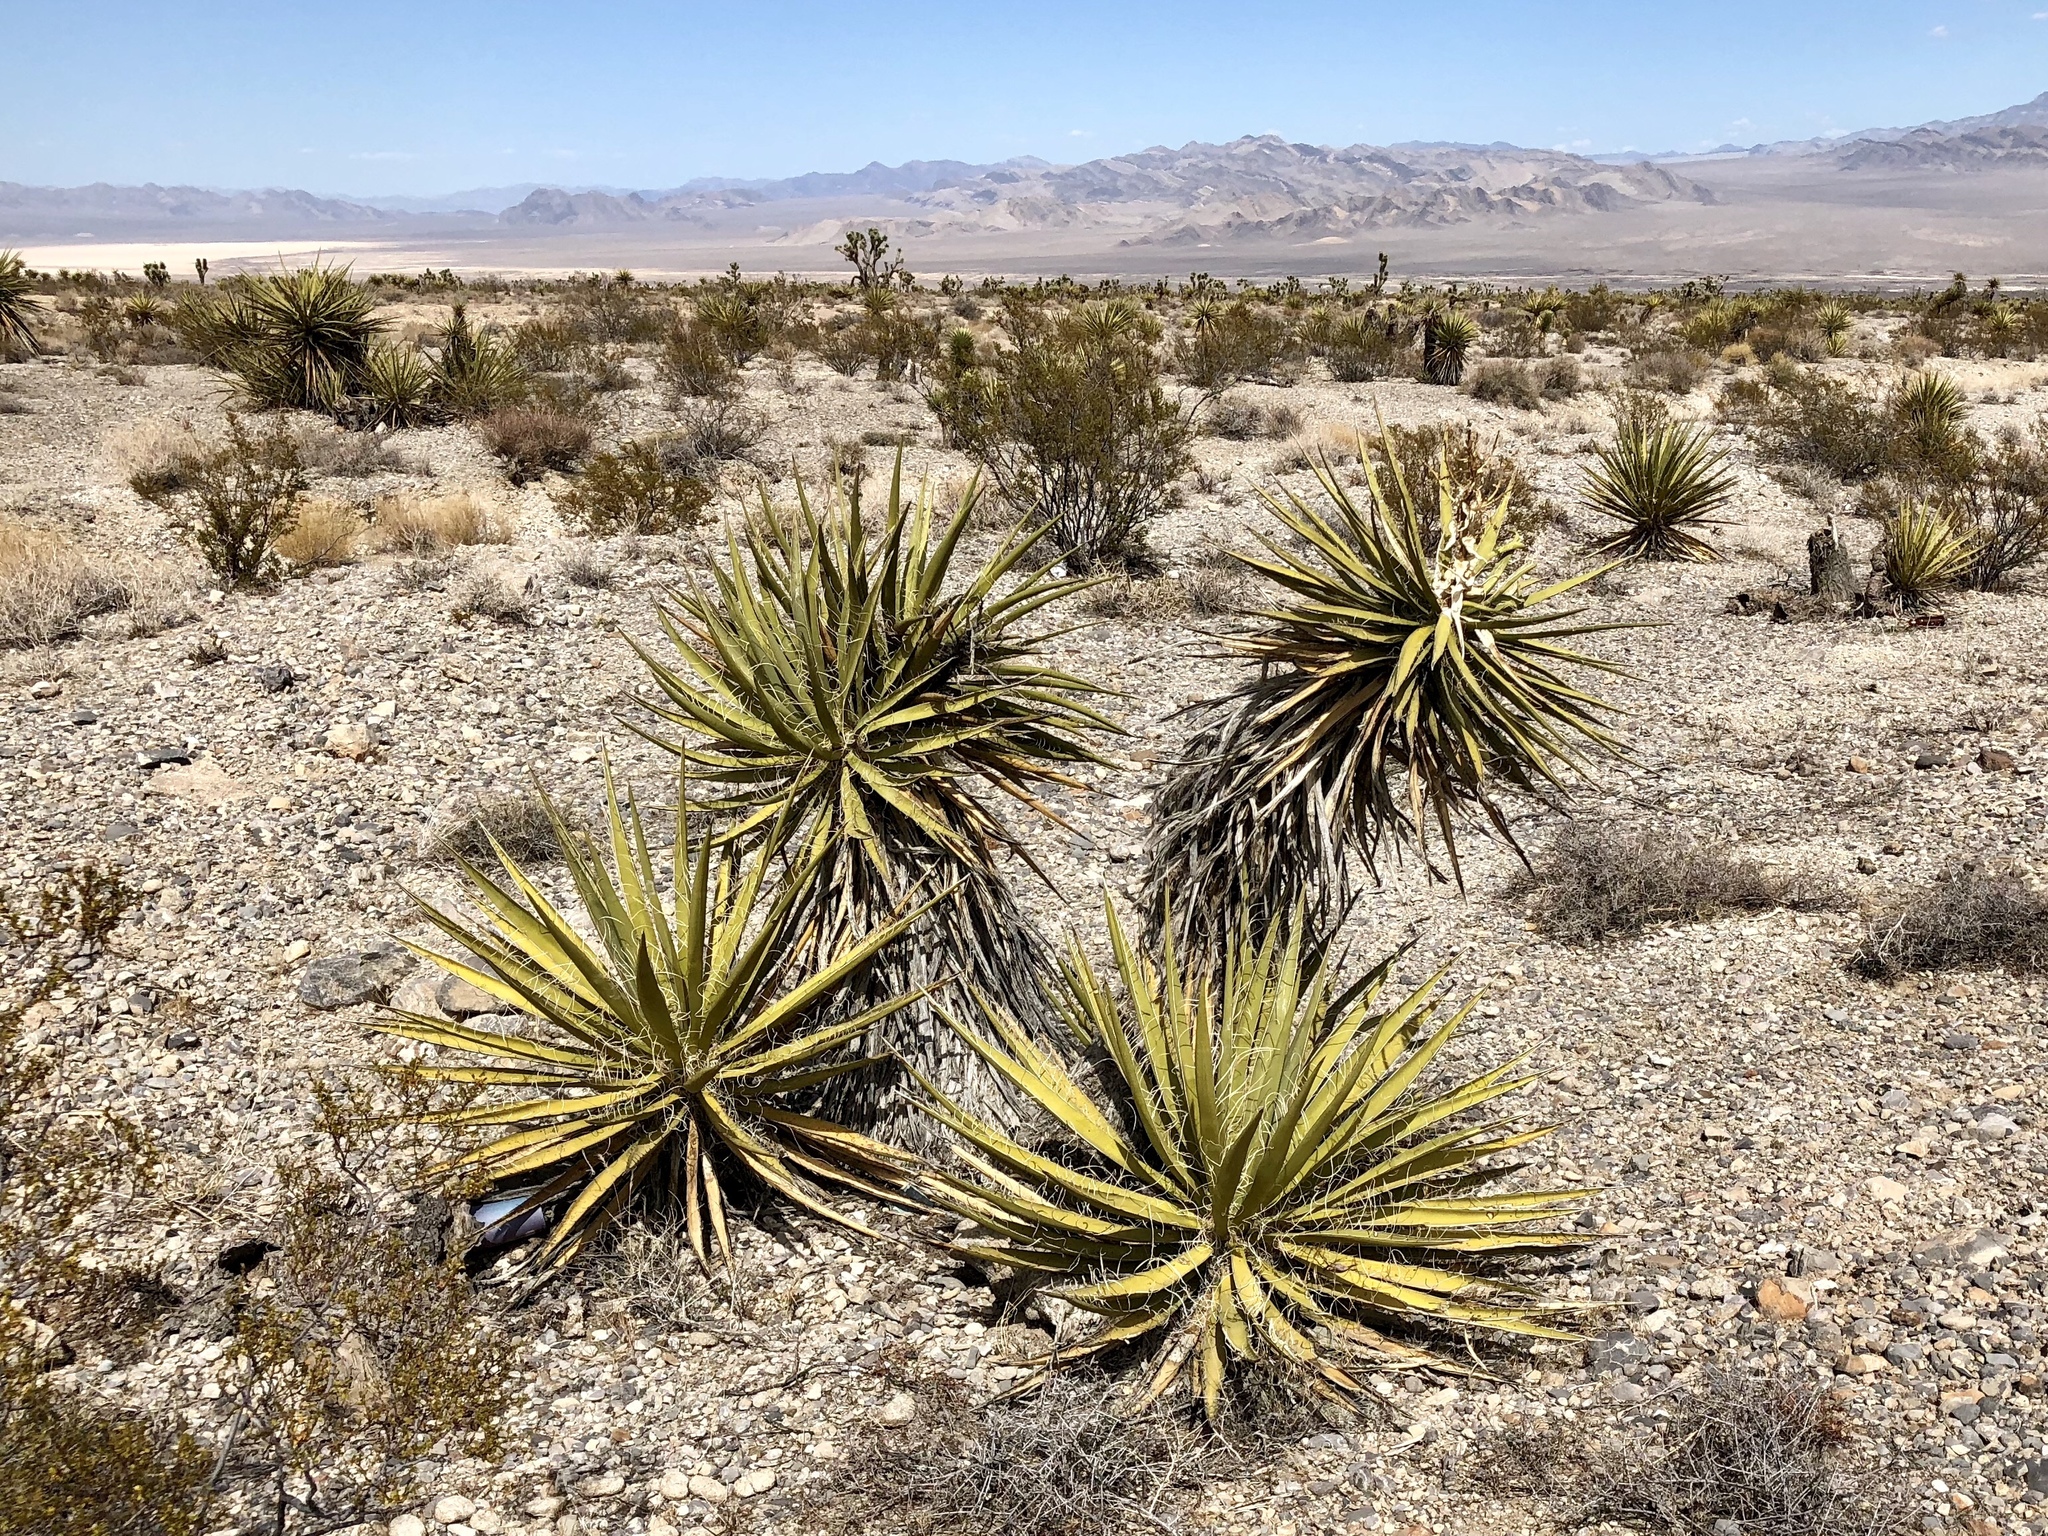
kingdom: Plantae
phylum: Tracheophyta
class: Liliopsida
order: Asparagales
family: Asparagaceae
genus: Yucca
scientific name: Yucca schidigera
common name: Mojave yucca
